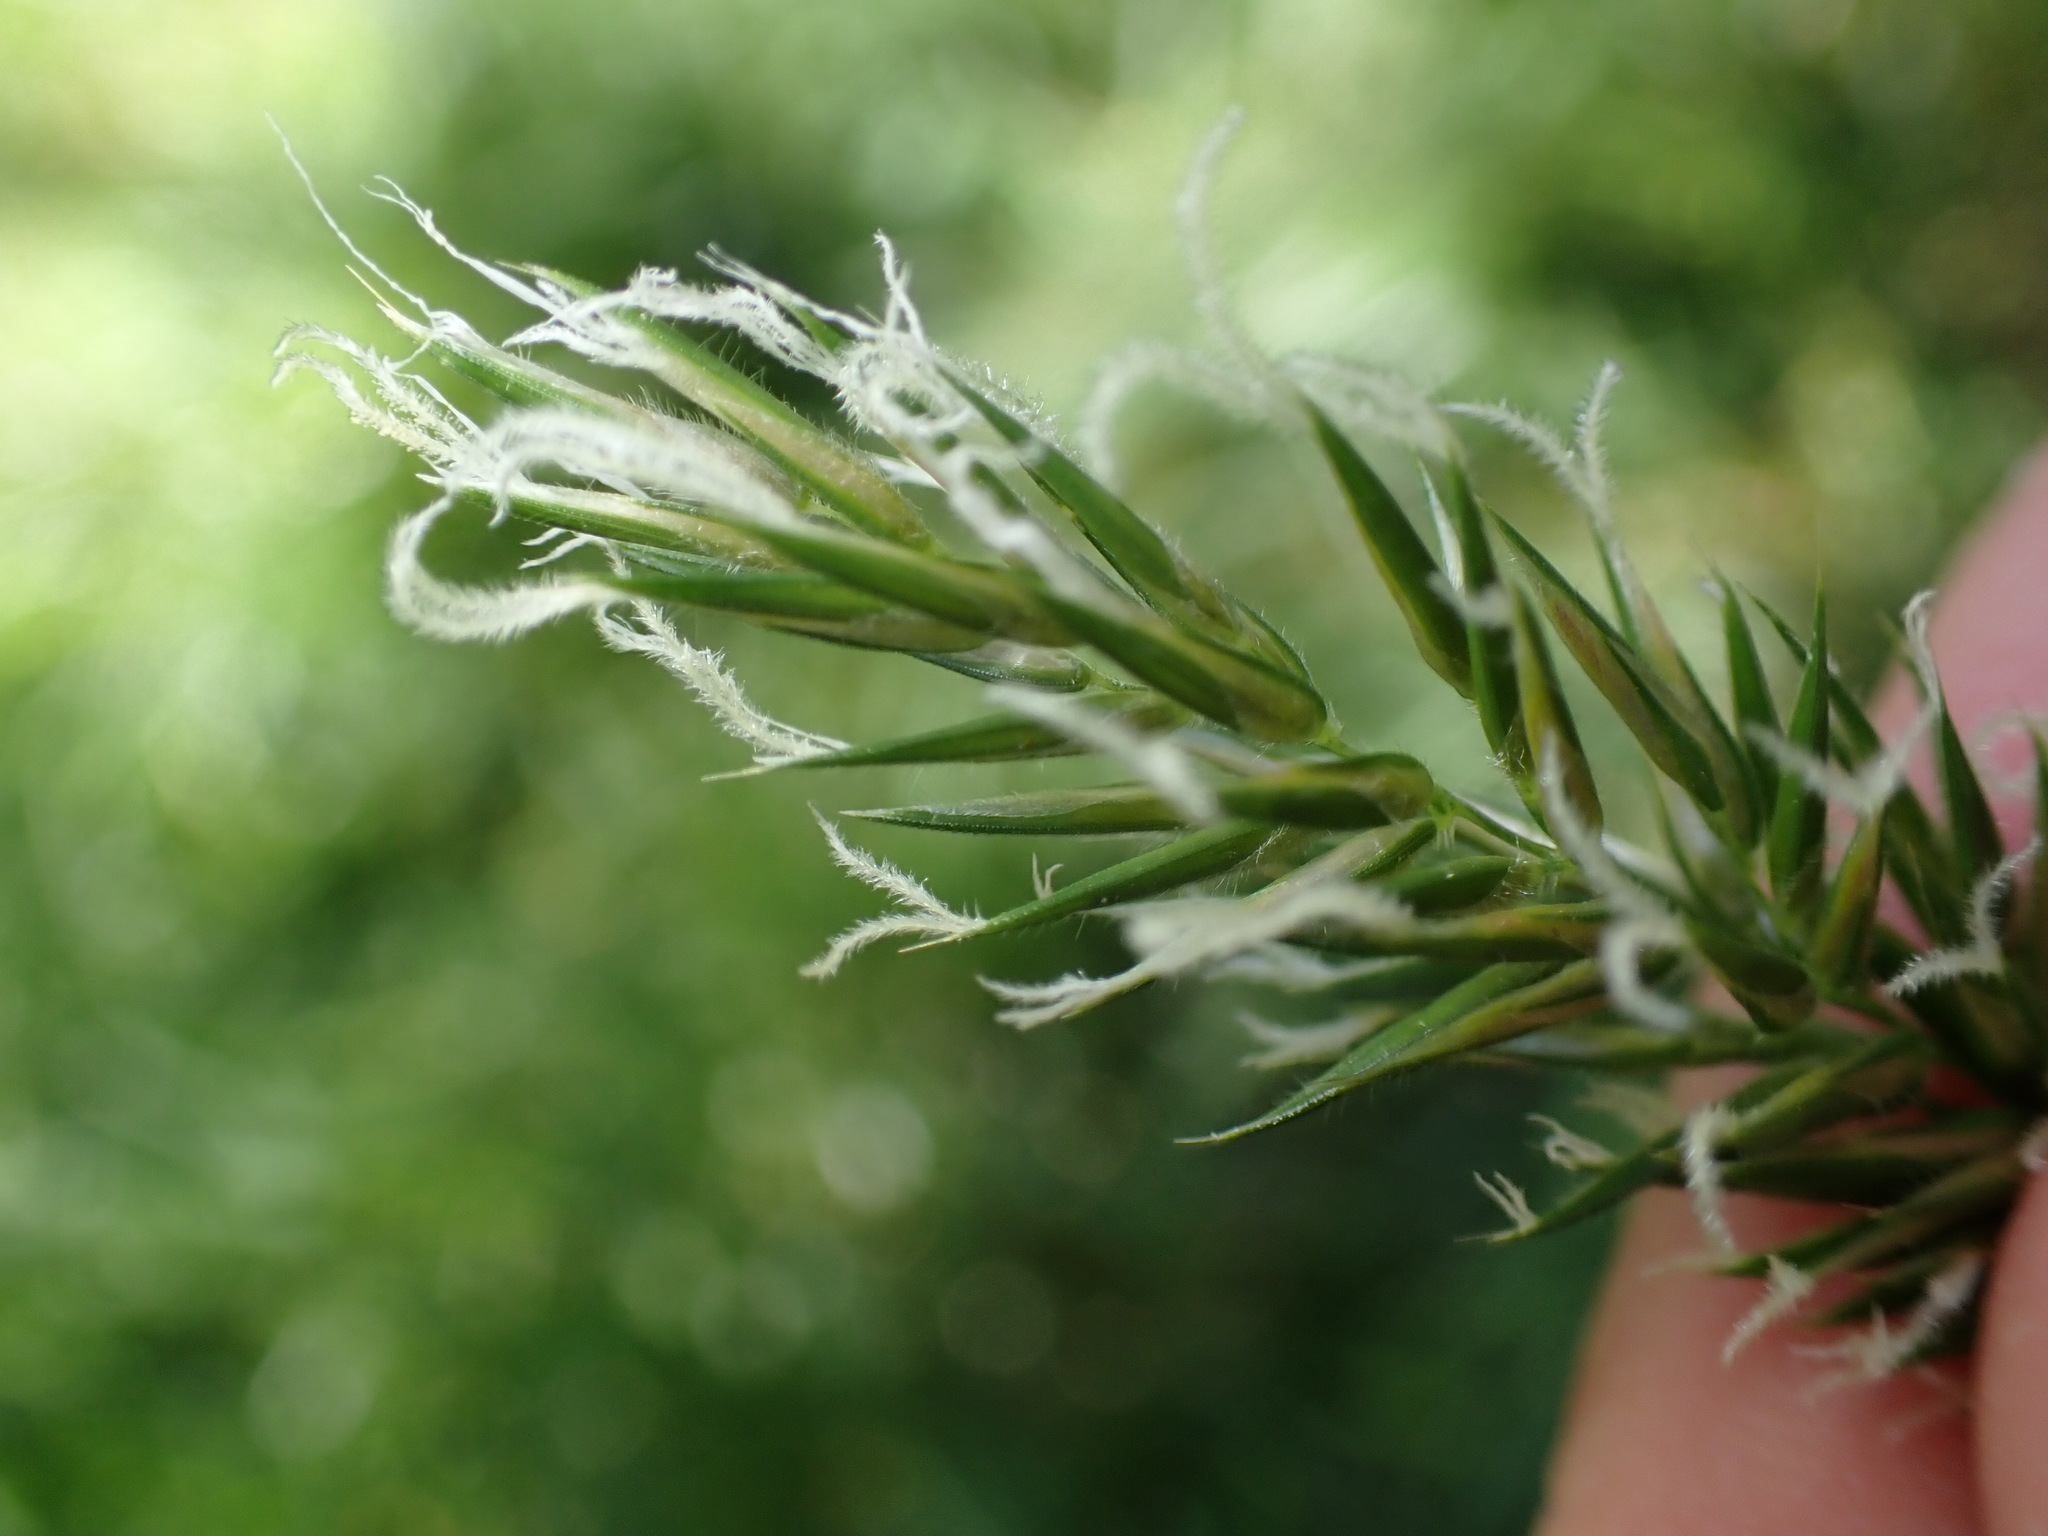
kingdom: Plantae
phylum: Tracheophyta
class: Liliopsida
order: Poales
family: Poaceae
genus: Anthoxanthum
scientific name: Anthoxanthum odoratum
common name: Sweet vernalgrass
